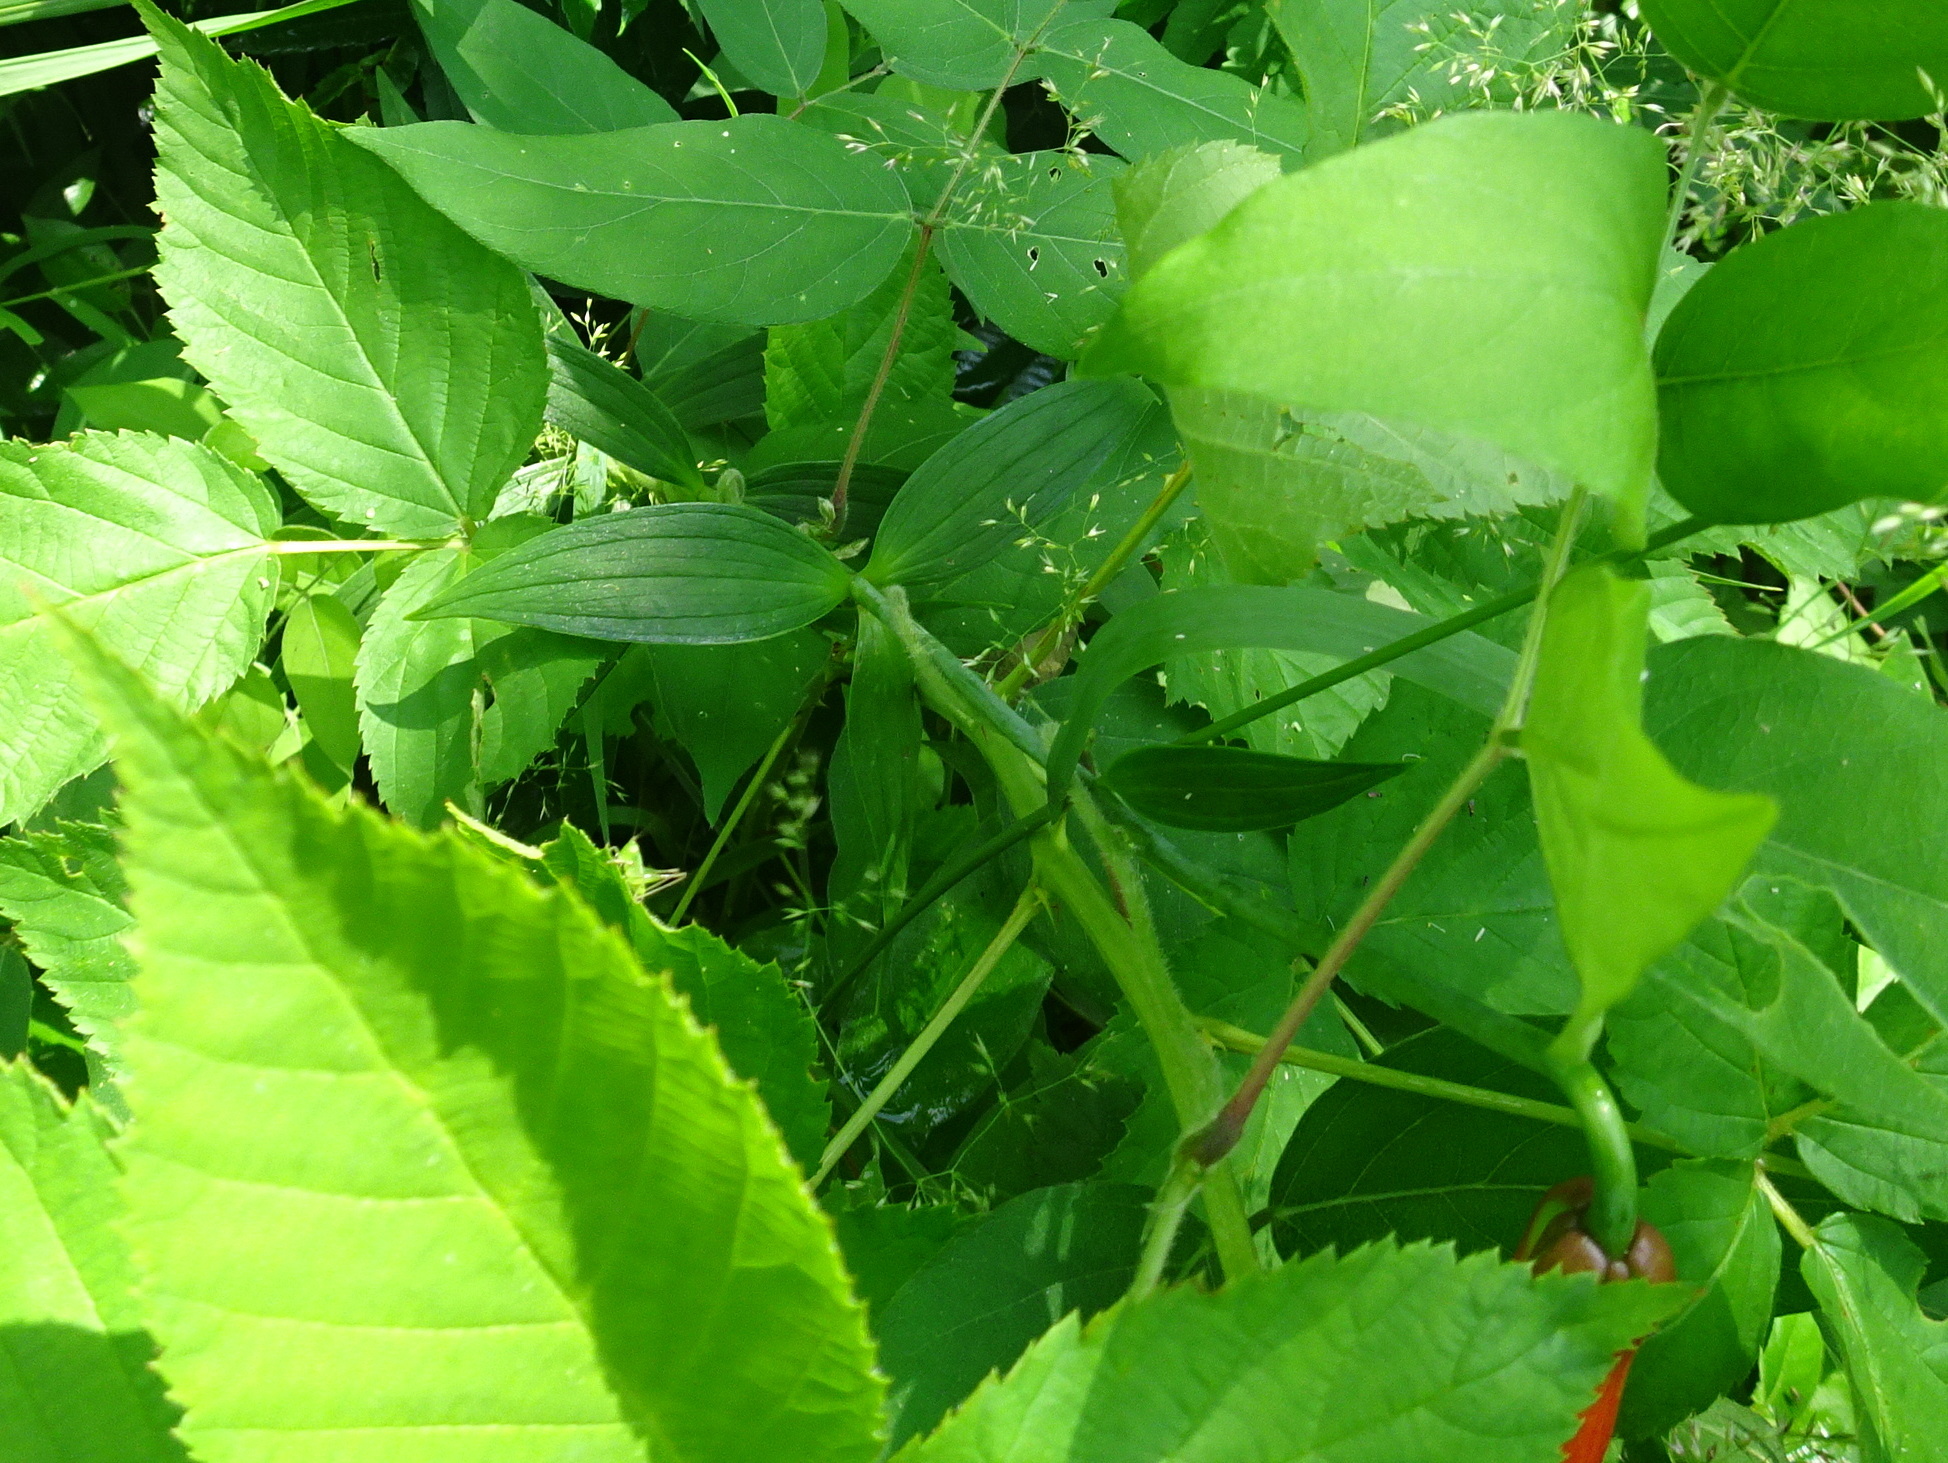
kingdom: Plantae
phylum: Tracheophyta
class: Liliopsida
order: Liliales
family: Liliaceae
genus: Lilium
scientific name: Lilium michiganense
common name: Michigan lily
